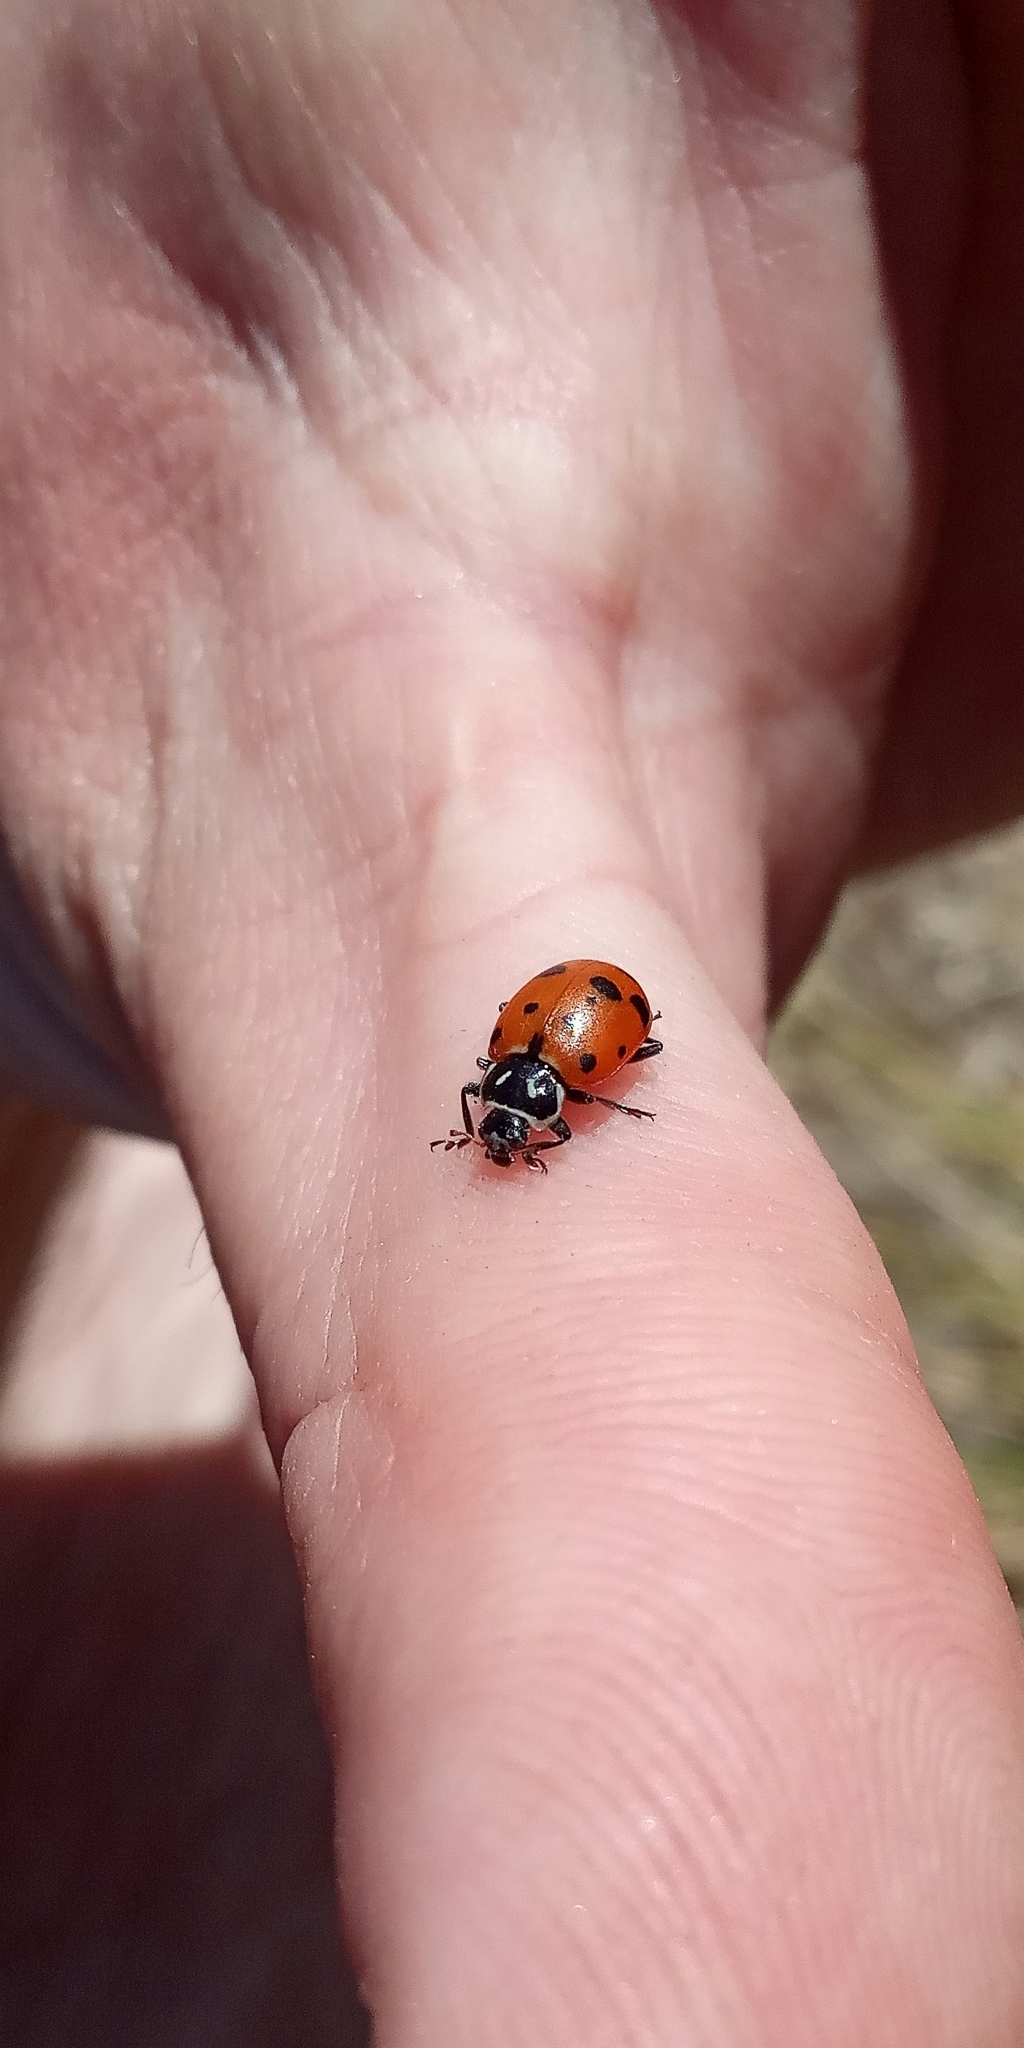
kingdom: Animalia
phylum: Arthropoda
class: Insecta
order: Coleoptera
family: Coccinellidae
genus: Hippodamia
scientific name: Hippodamia convergens
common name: Convergent lady beetle
